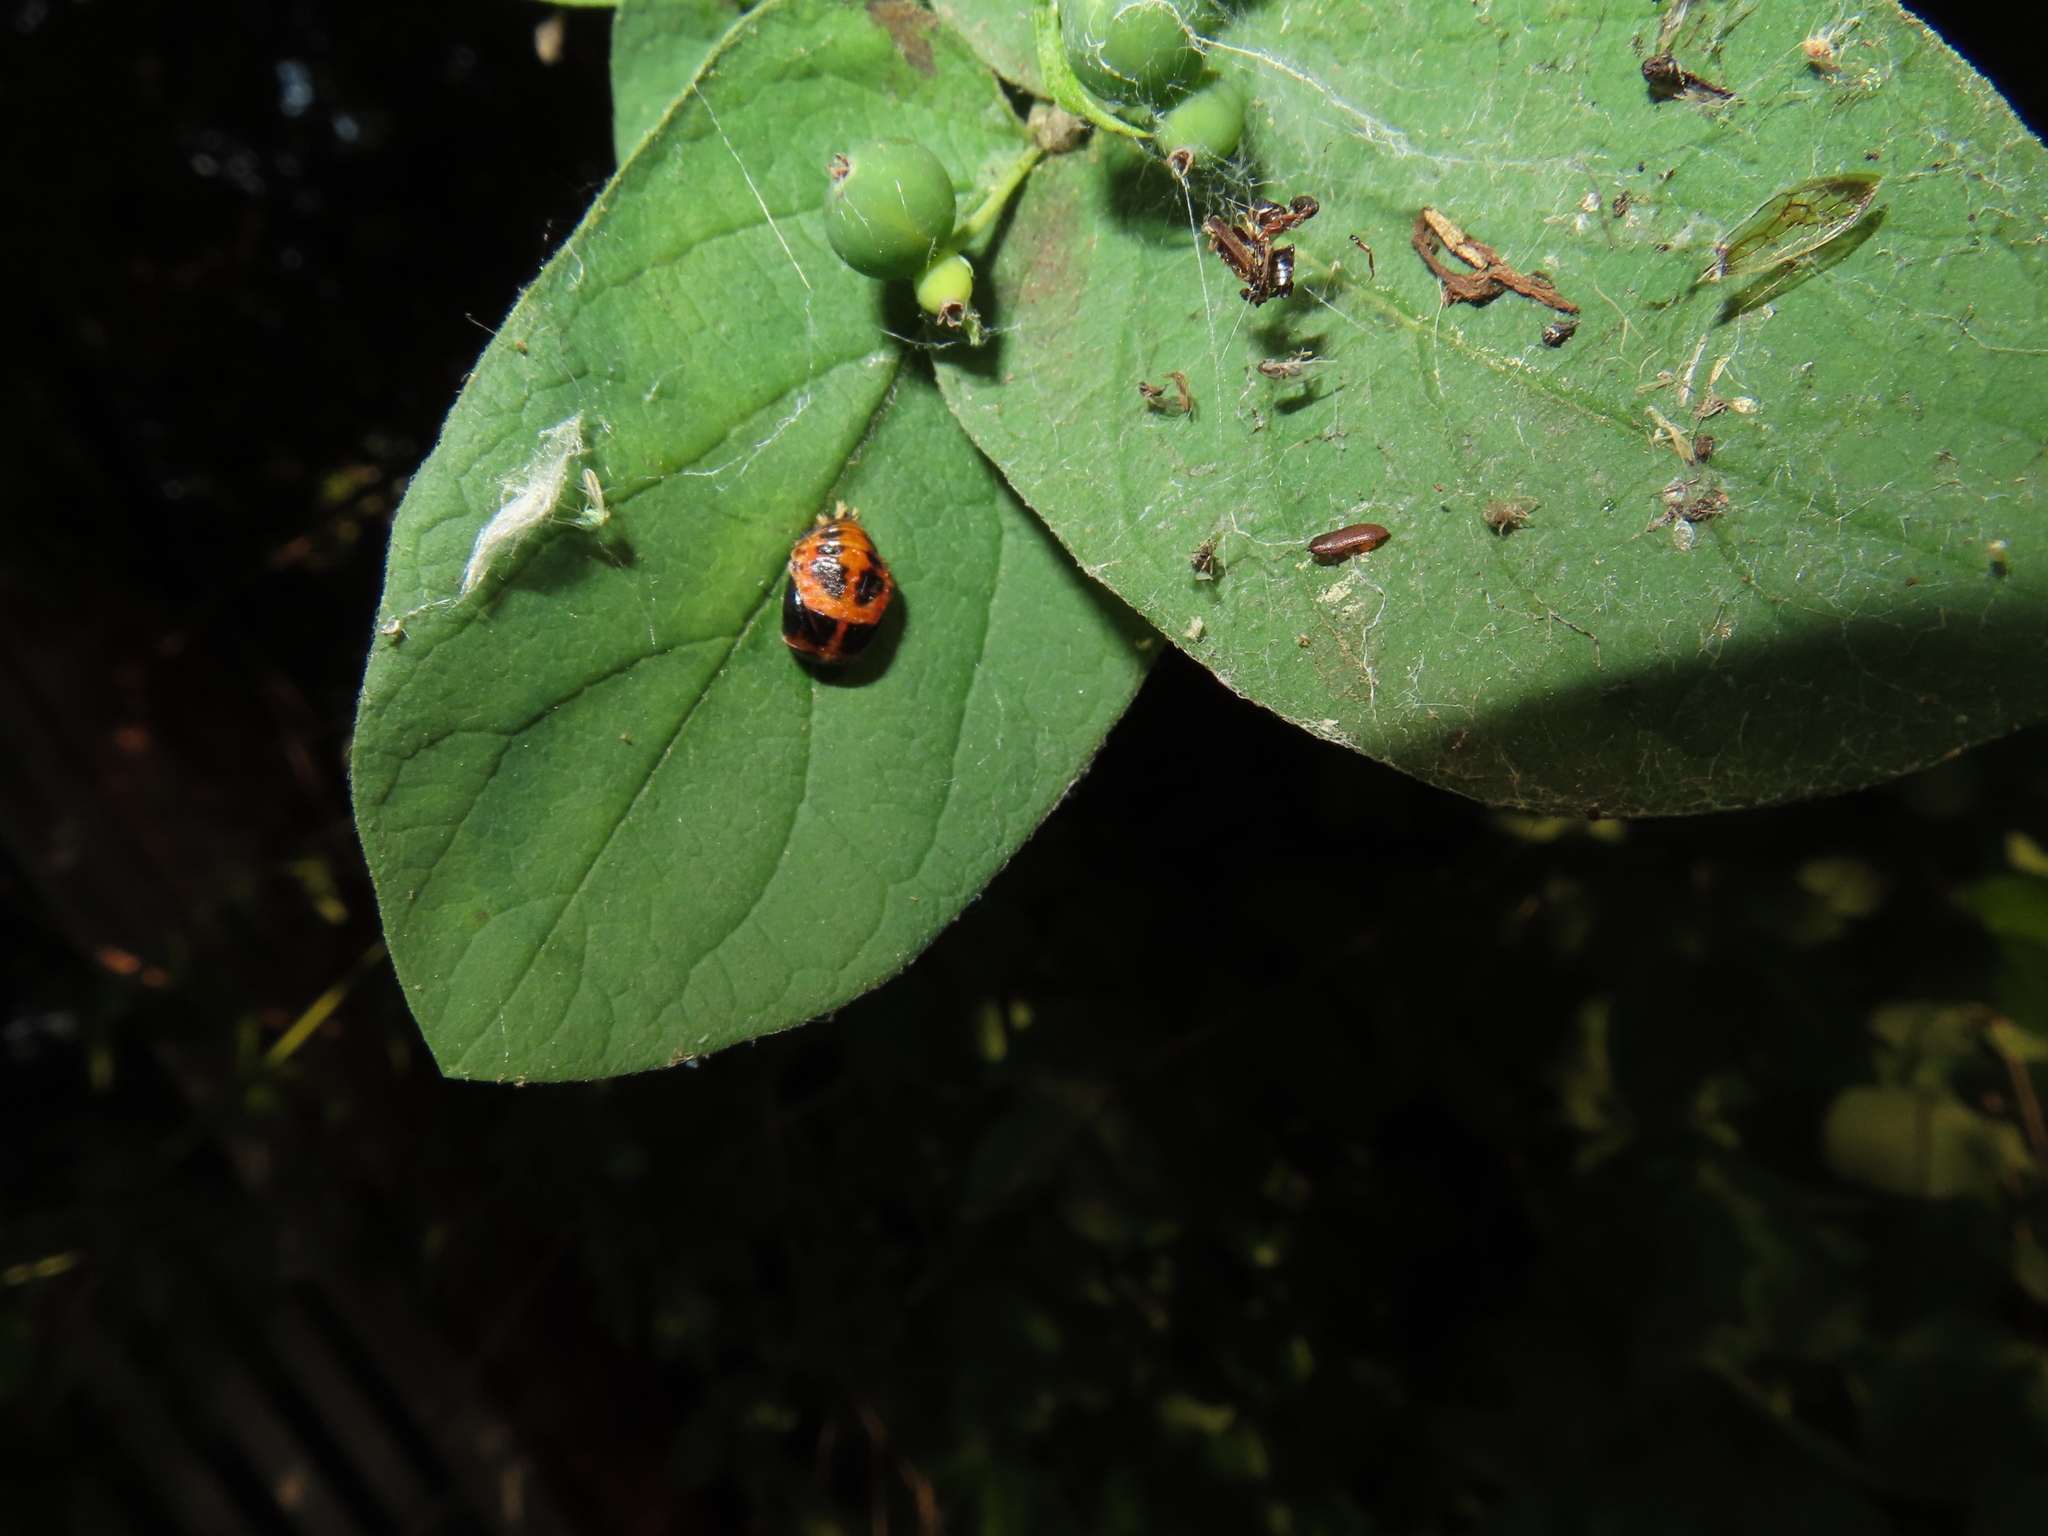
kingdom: Animalia
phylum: Arthropoda
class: Insecta
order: Coleoptera
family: Coccinellidae
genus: Harmonia
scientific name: Harmonia axyridis
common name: Harlequin ladybird
